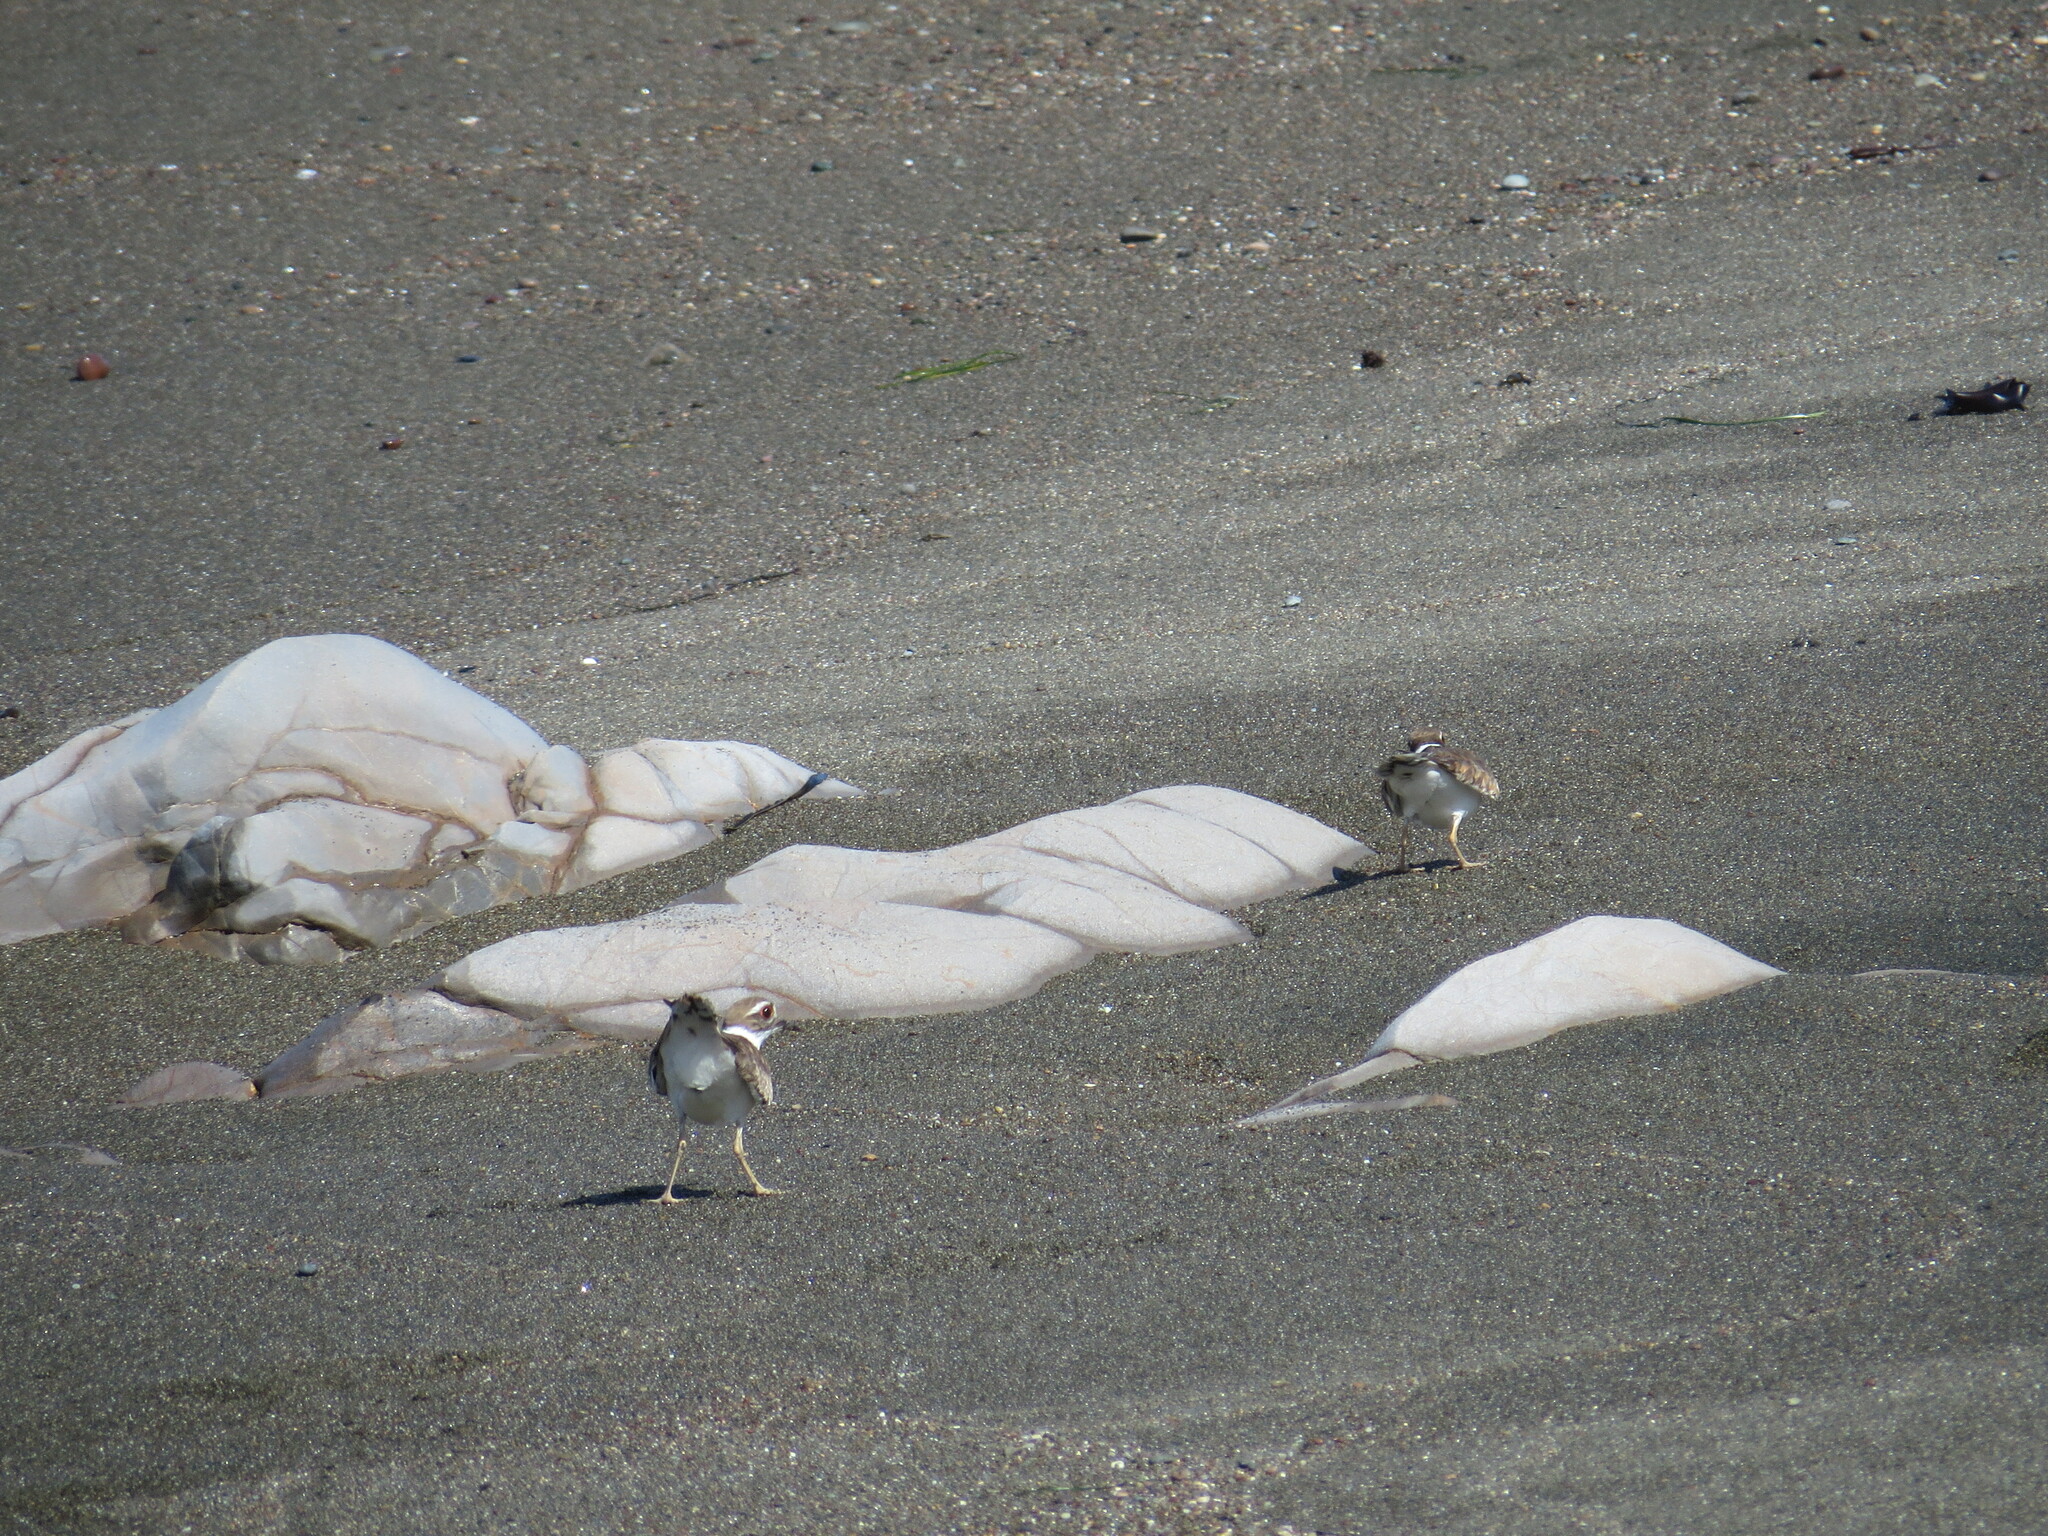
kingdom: Animalia
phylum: Chordata
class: Aves
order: Charadriiformes
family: Charadriidae
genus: Charadrius
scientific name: Charadrius vociferus
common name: Killdeer
